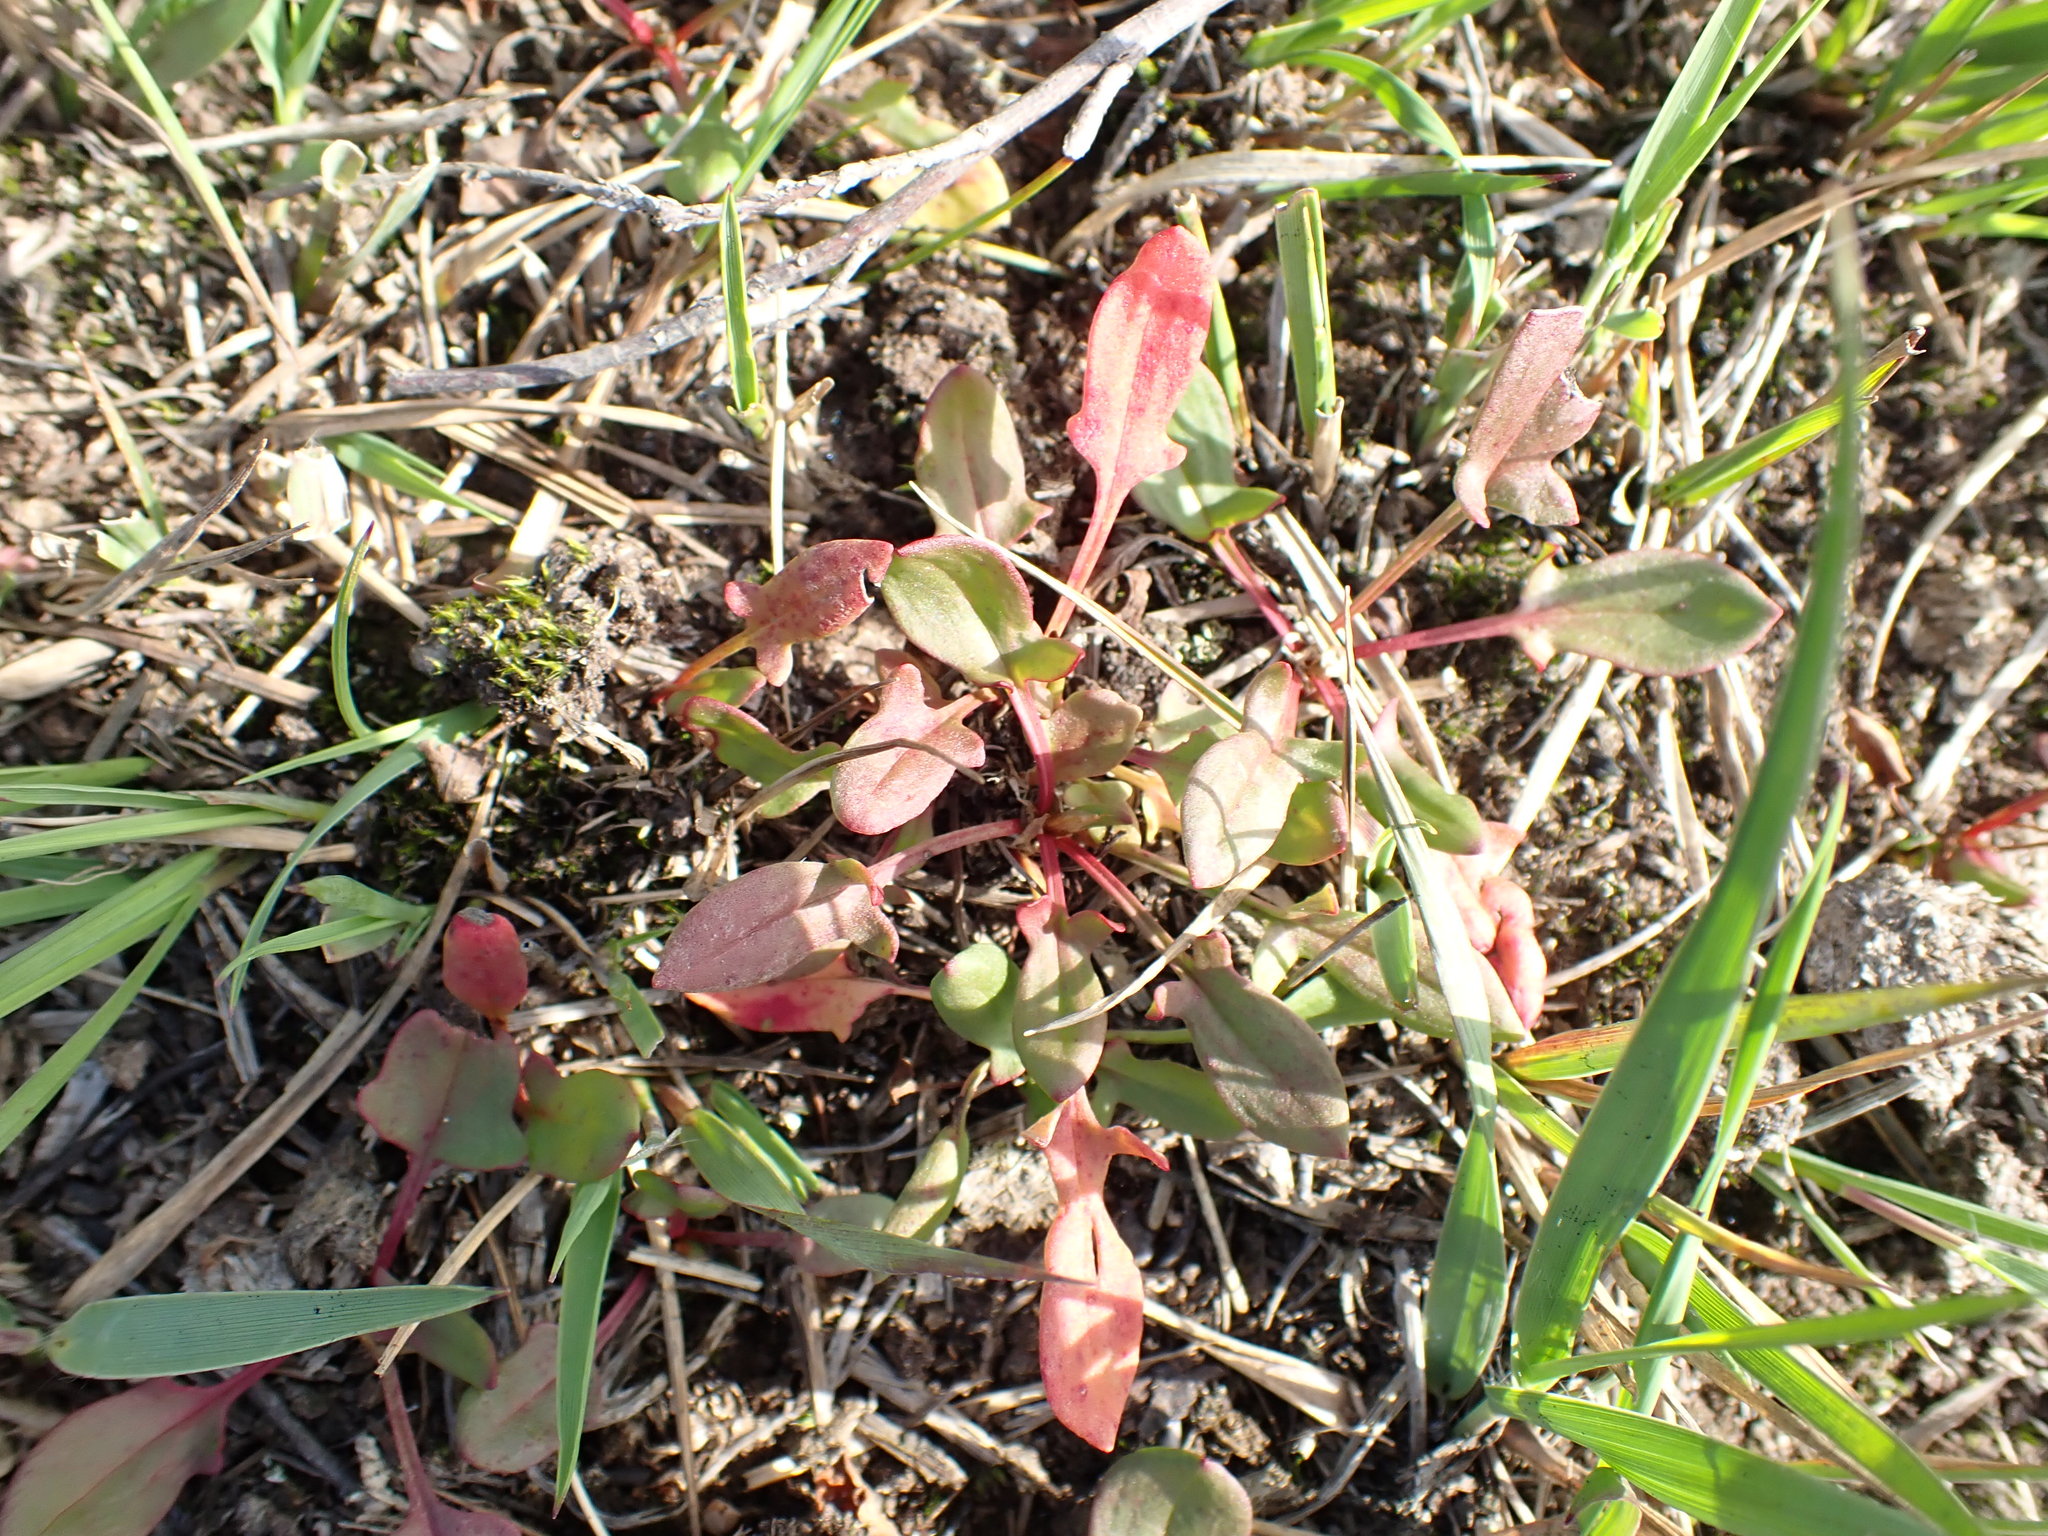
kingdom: Plantae
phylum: Tracheophyta
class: Magnoliopsida
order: Caryophyllales
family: Polygonaceae
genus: Rumex
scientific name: Rumex acetosella
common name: Common sheep sorrel
